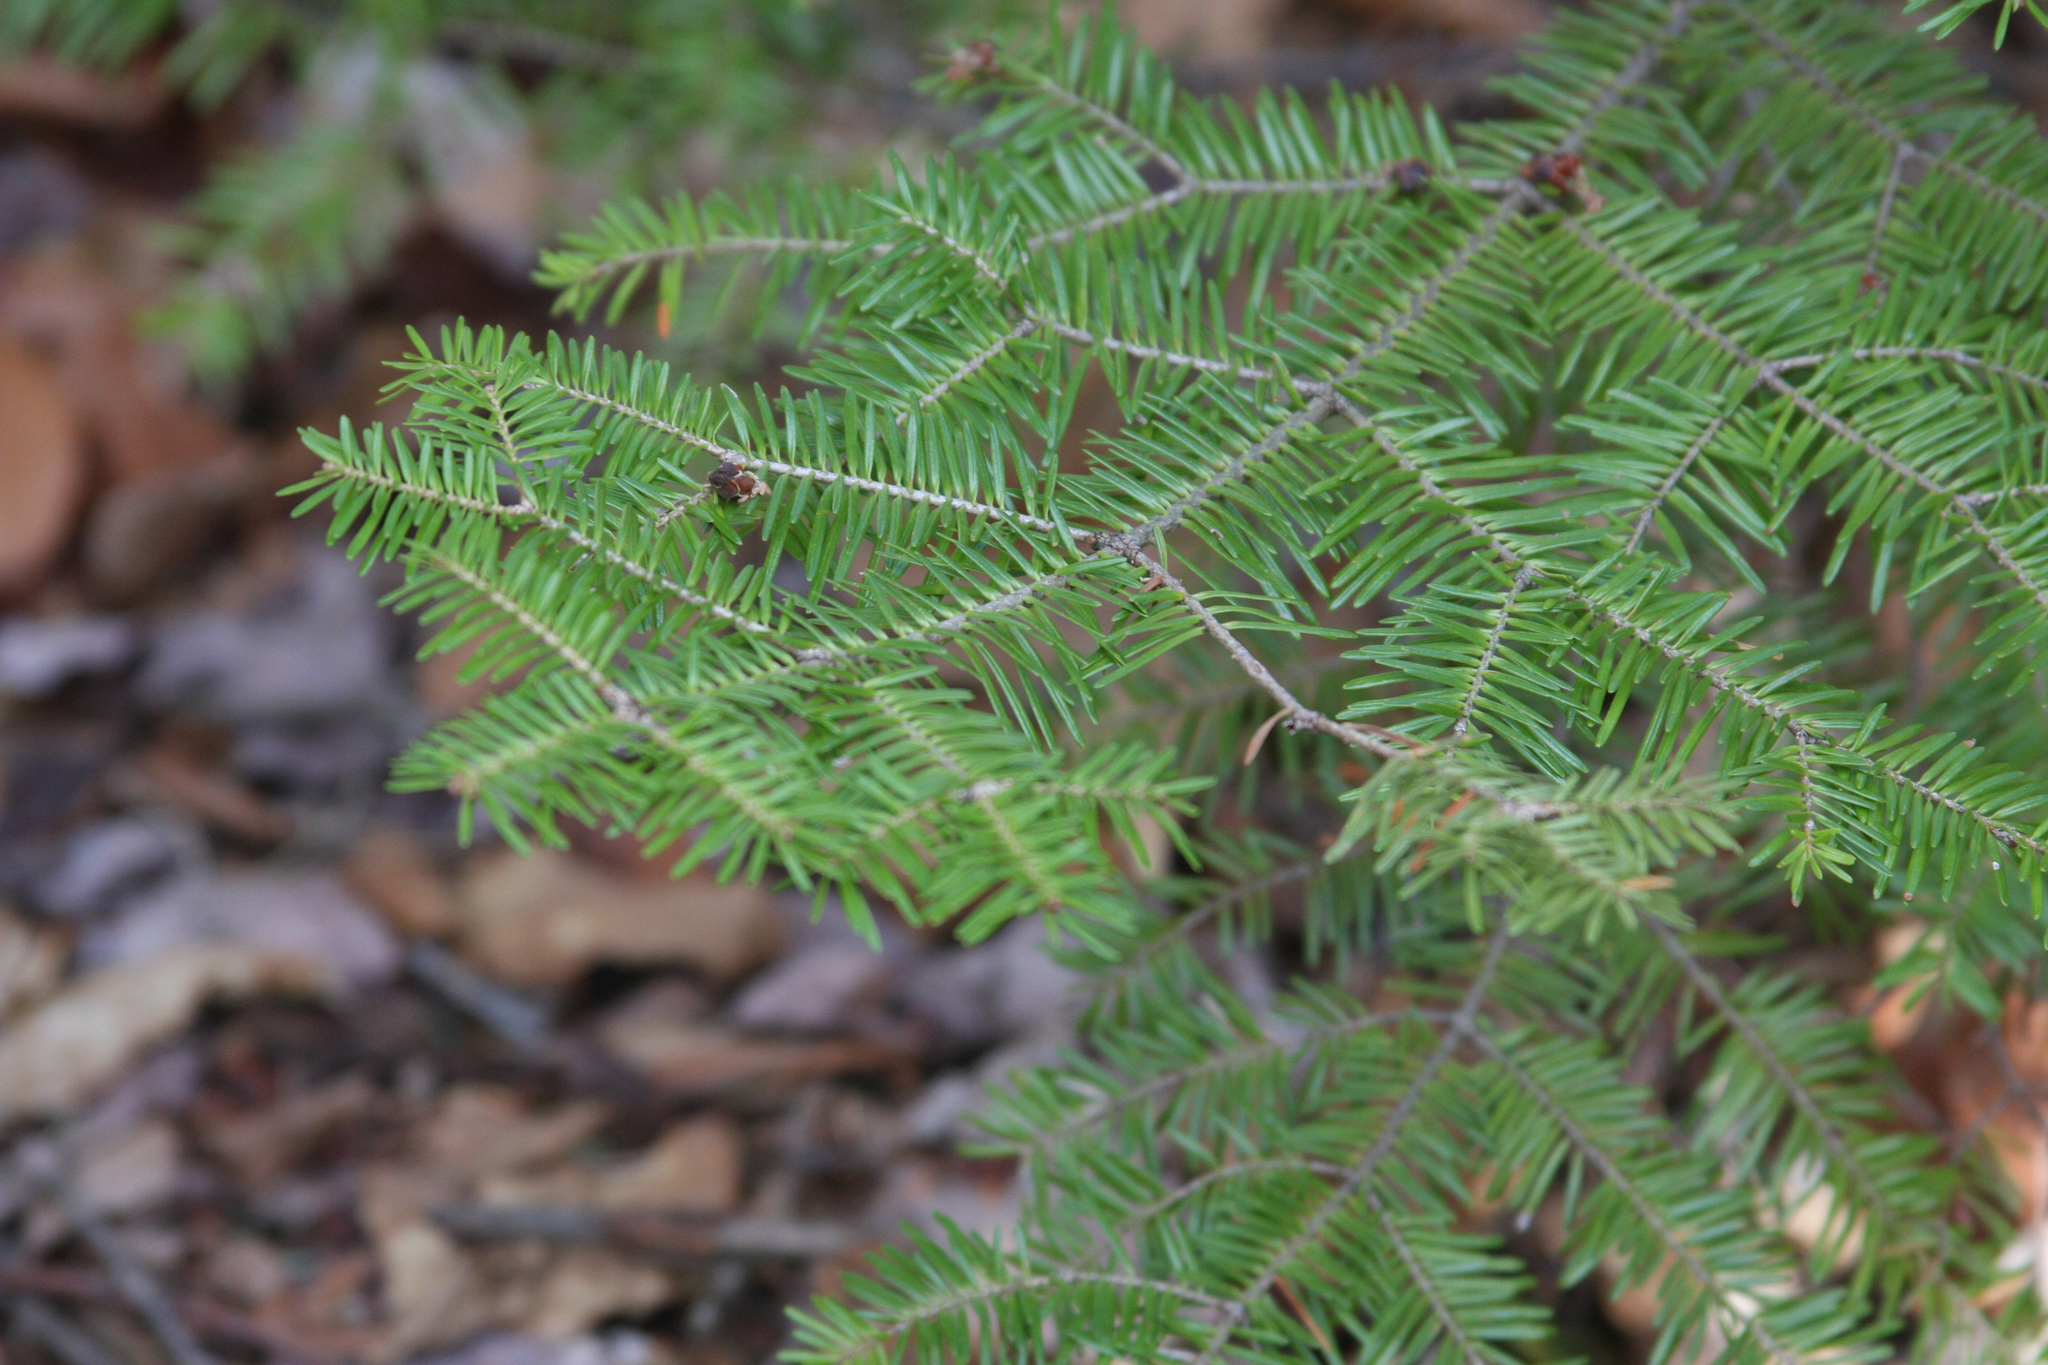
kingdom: Plantae
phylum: Tracheophyta
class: Pinopsida
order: Pinales
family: Pinaceae
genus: Abies
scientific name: Abies balsamea
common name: Balsam fir
